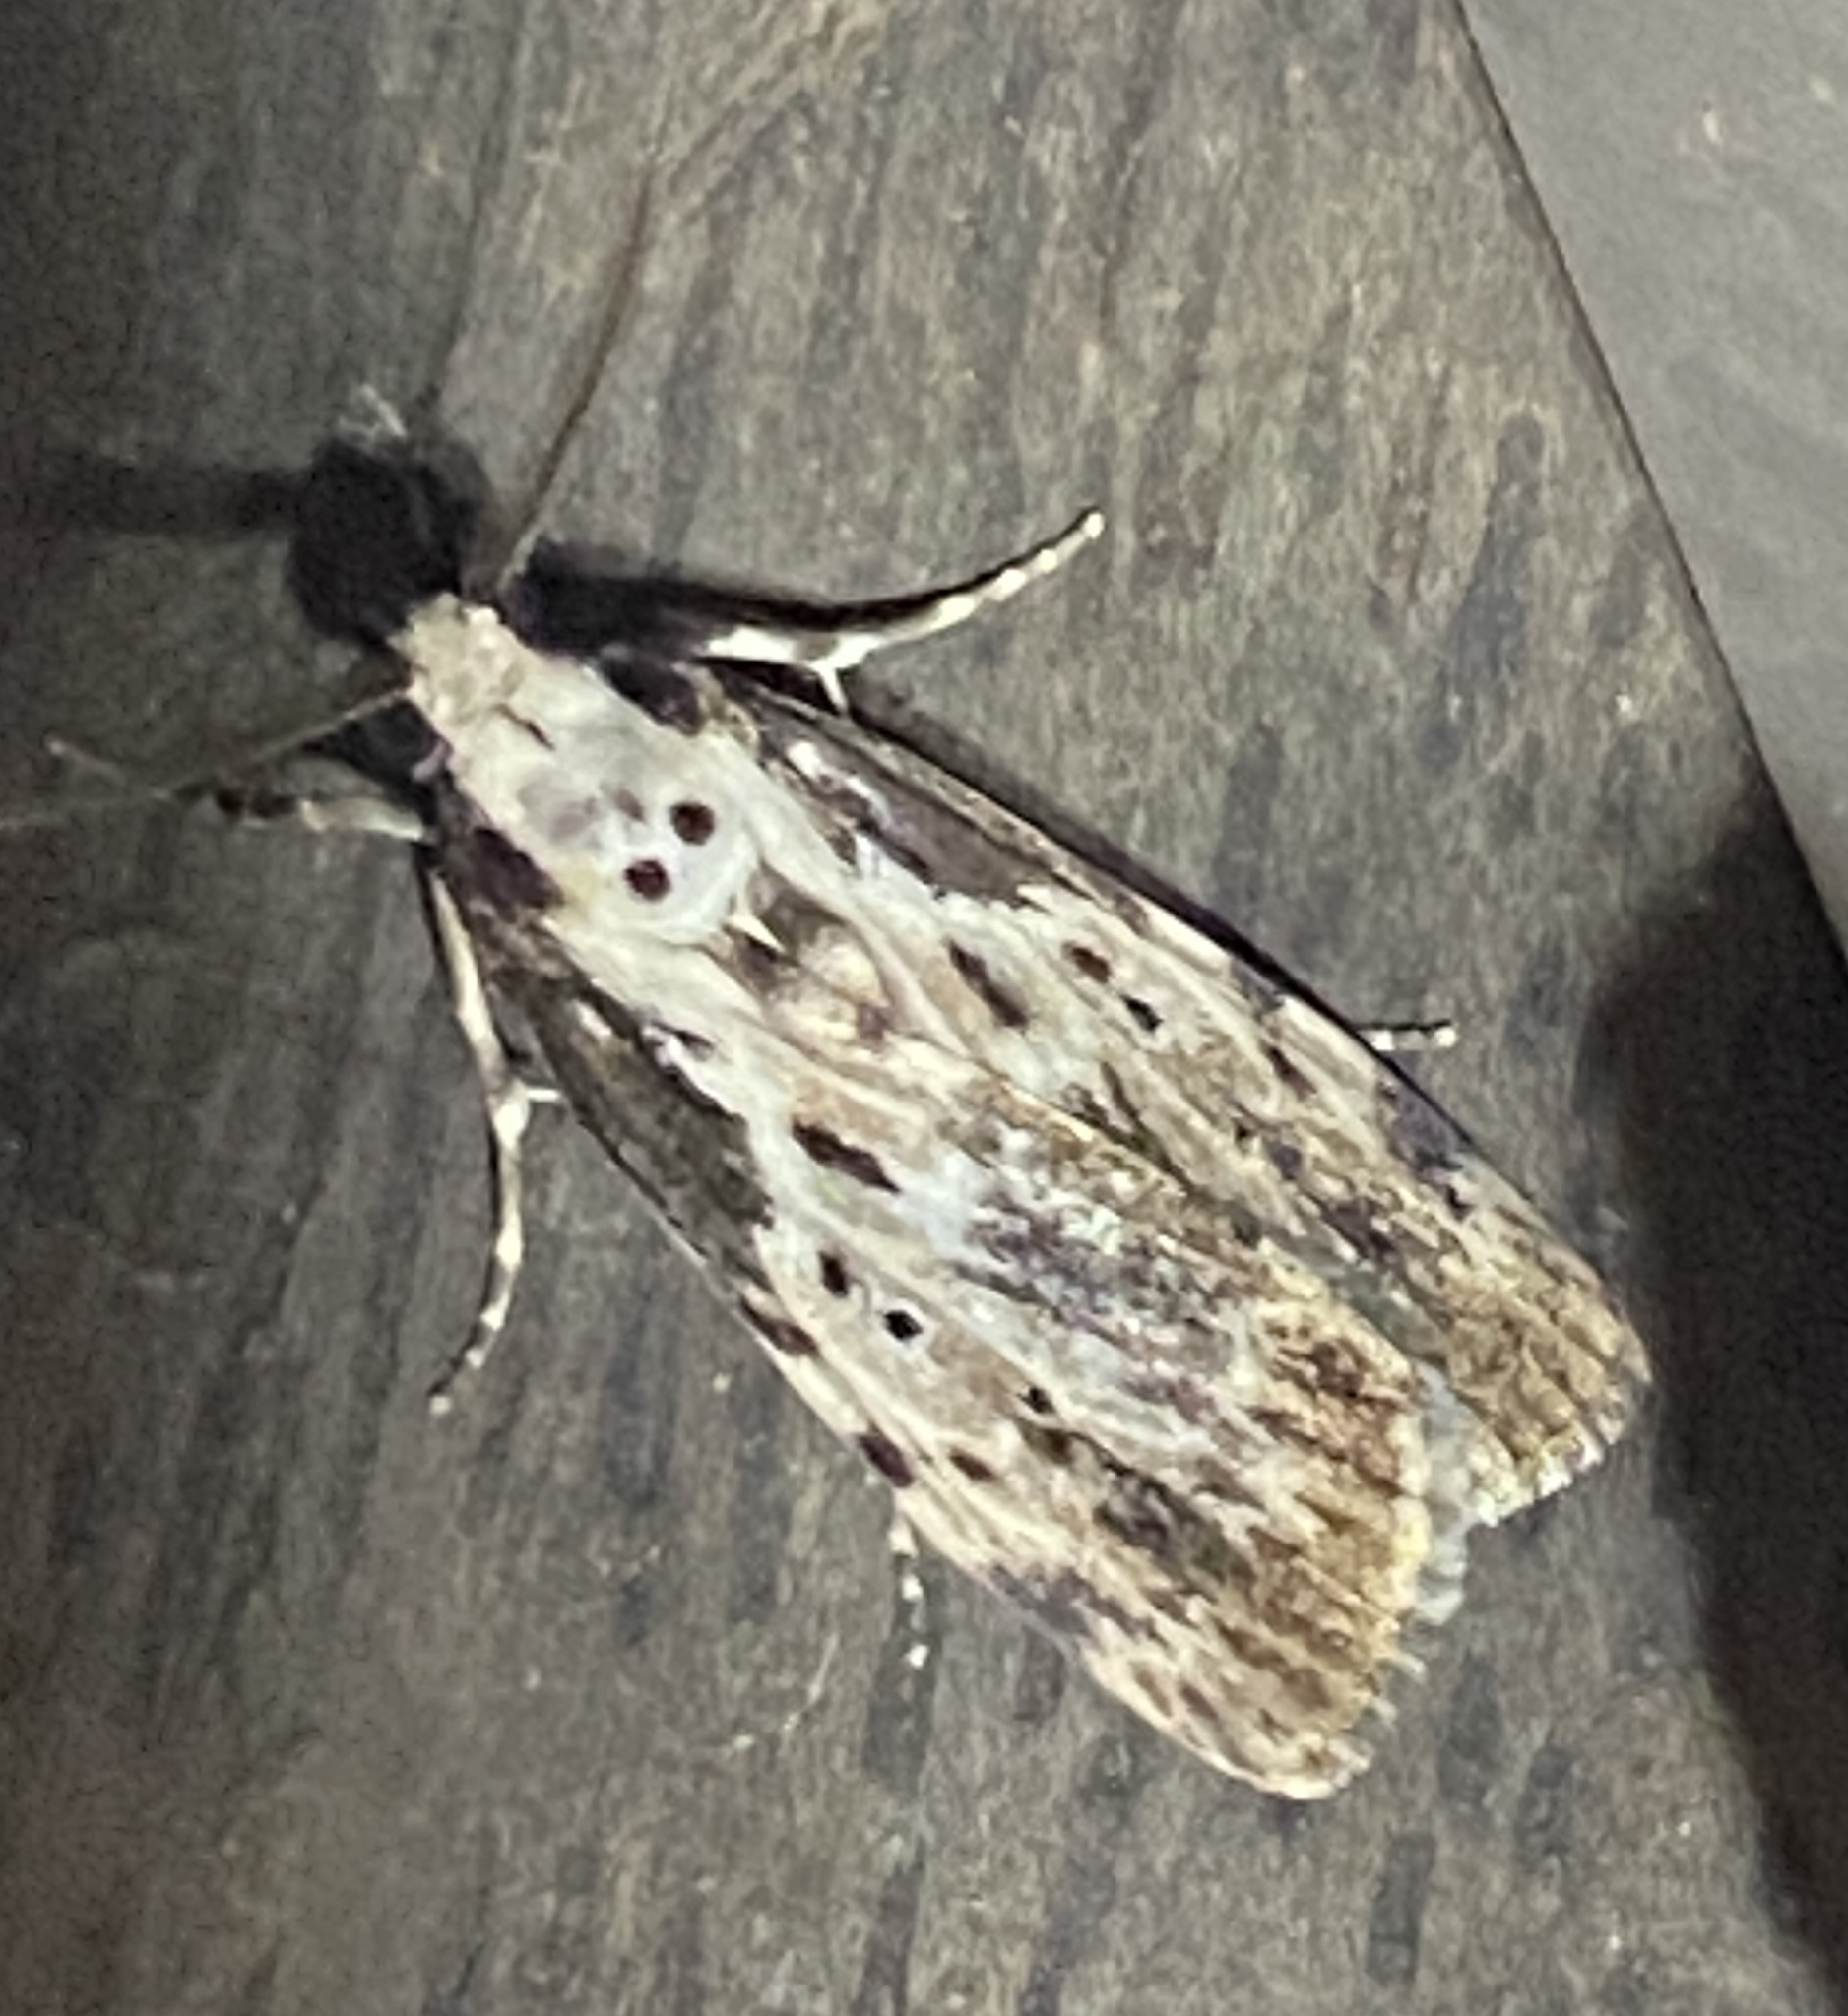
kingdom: Animalia
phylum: Arthropoda
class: Insecta
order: Lepidoptera
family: Erebidae
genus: Digama
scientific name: Digama Sommeria marmorea
